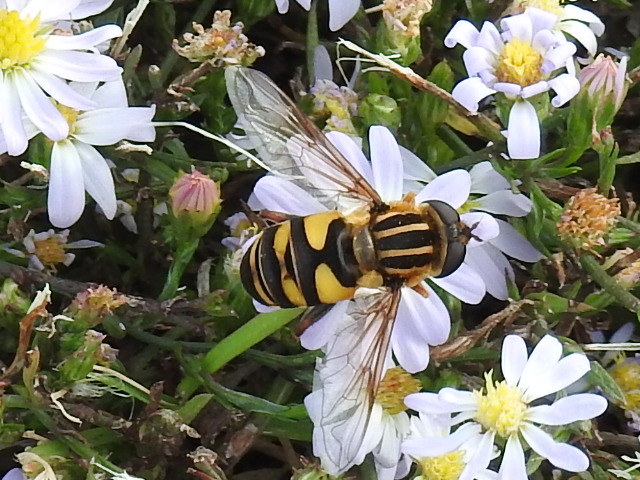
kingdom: Animalia
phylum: Arthropoda
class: Insecta
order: Diptera
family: Syrphidae
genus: Helophilus
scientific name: Helophilus fasciatus
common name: Narrow-headed marsh fly
